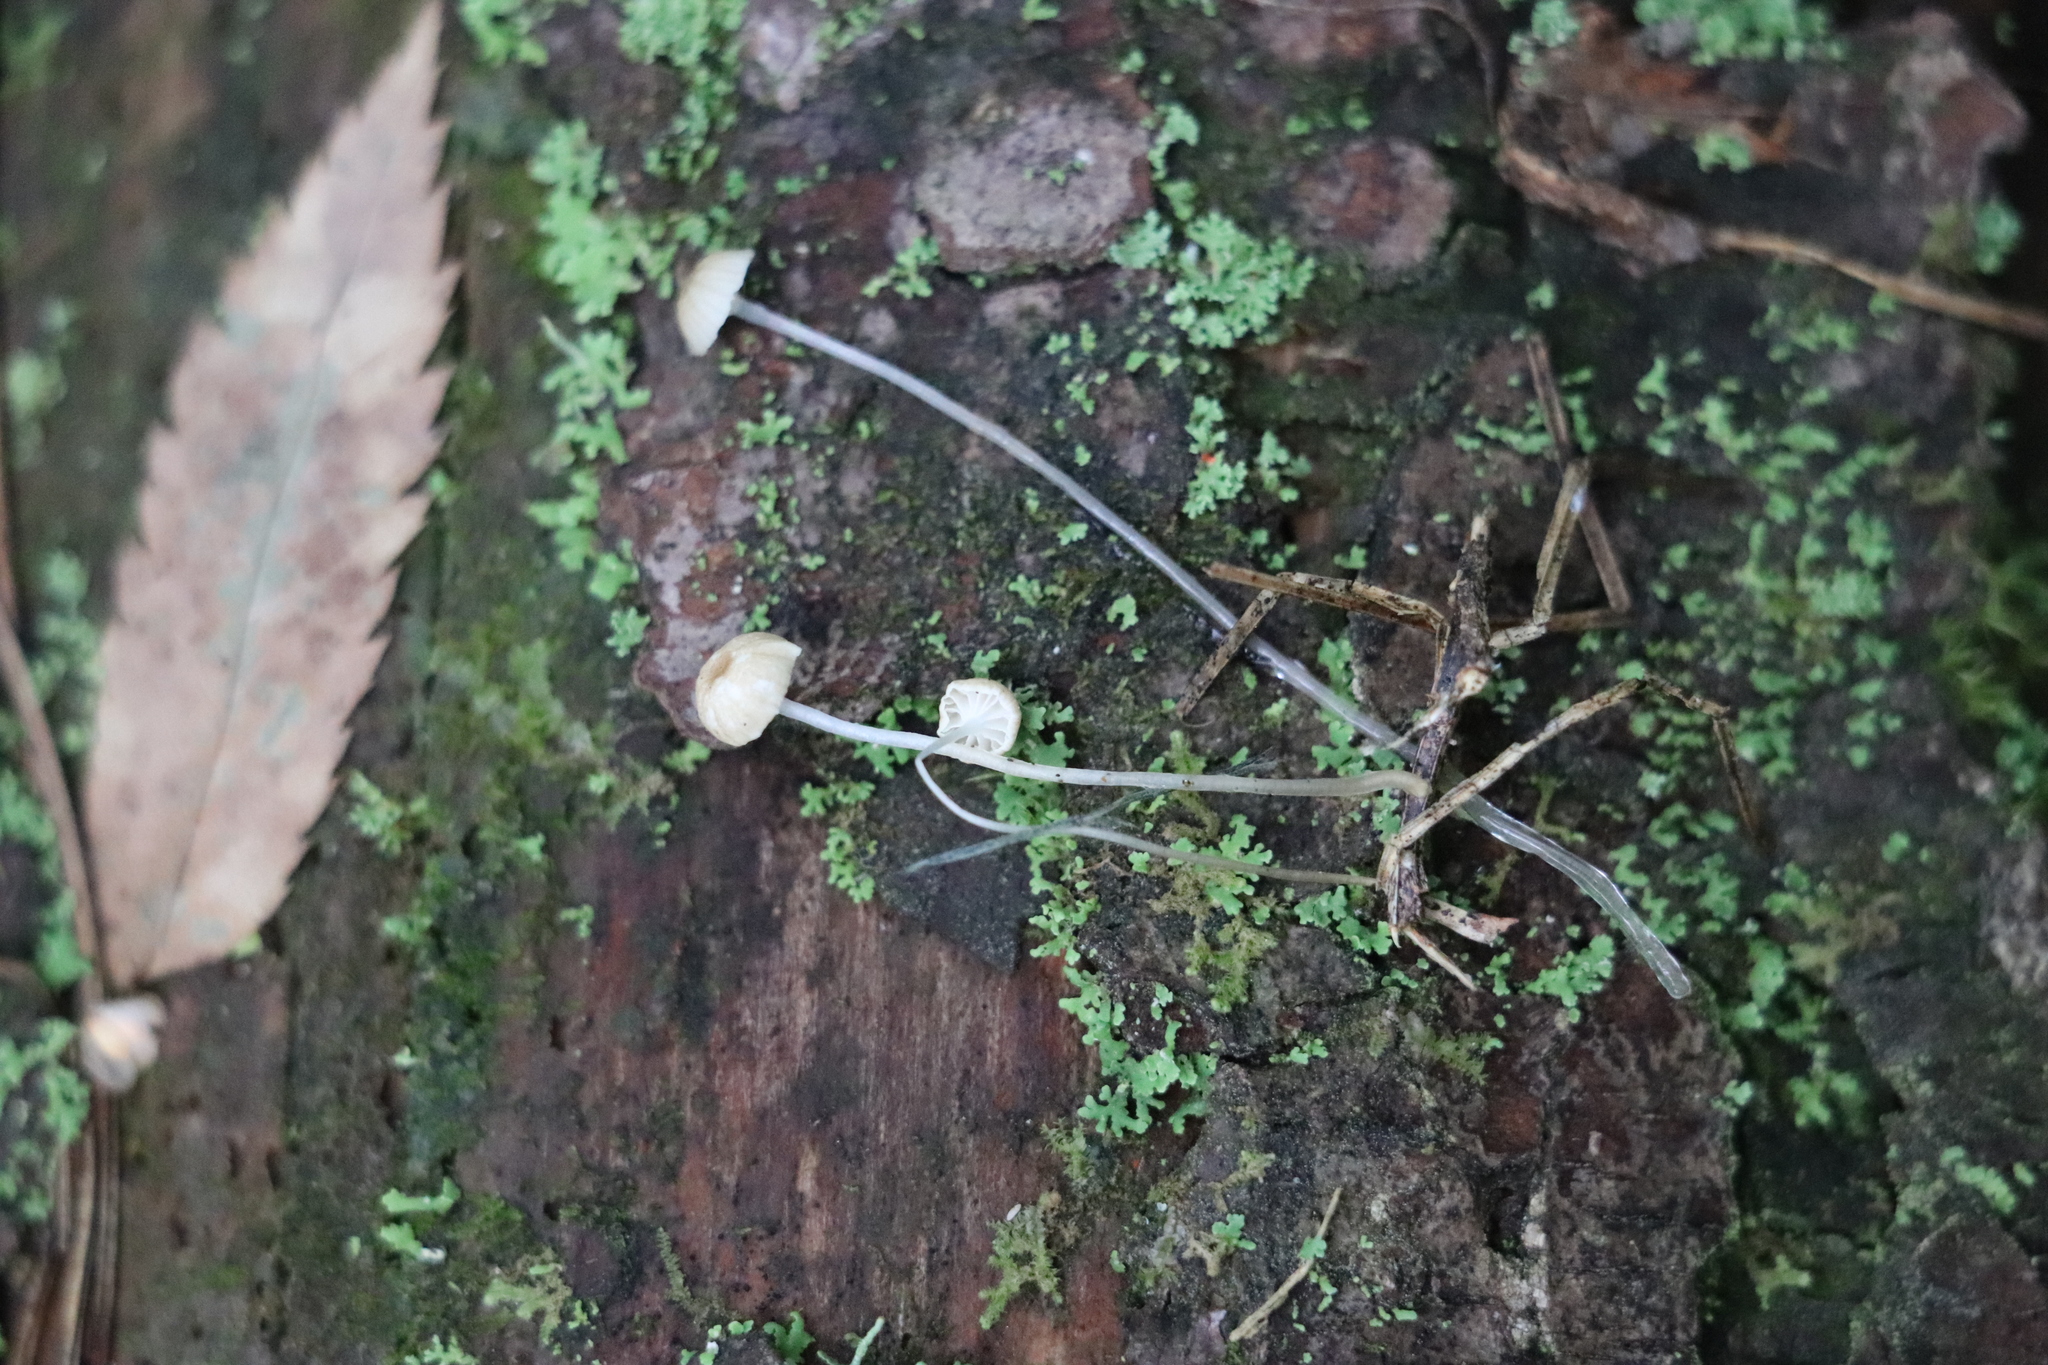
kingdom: Fungi
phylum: Basidiomycota
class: Agaricomycetes
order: Agaricales
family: Mycenaceae
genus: Roridomyces
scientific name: Roridomyces roridus
